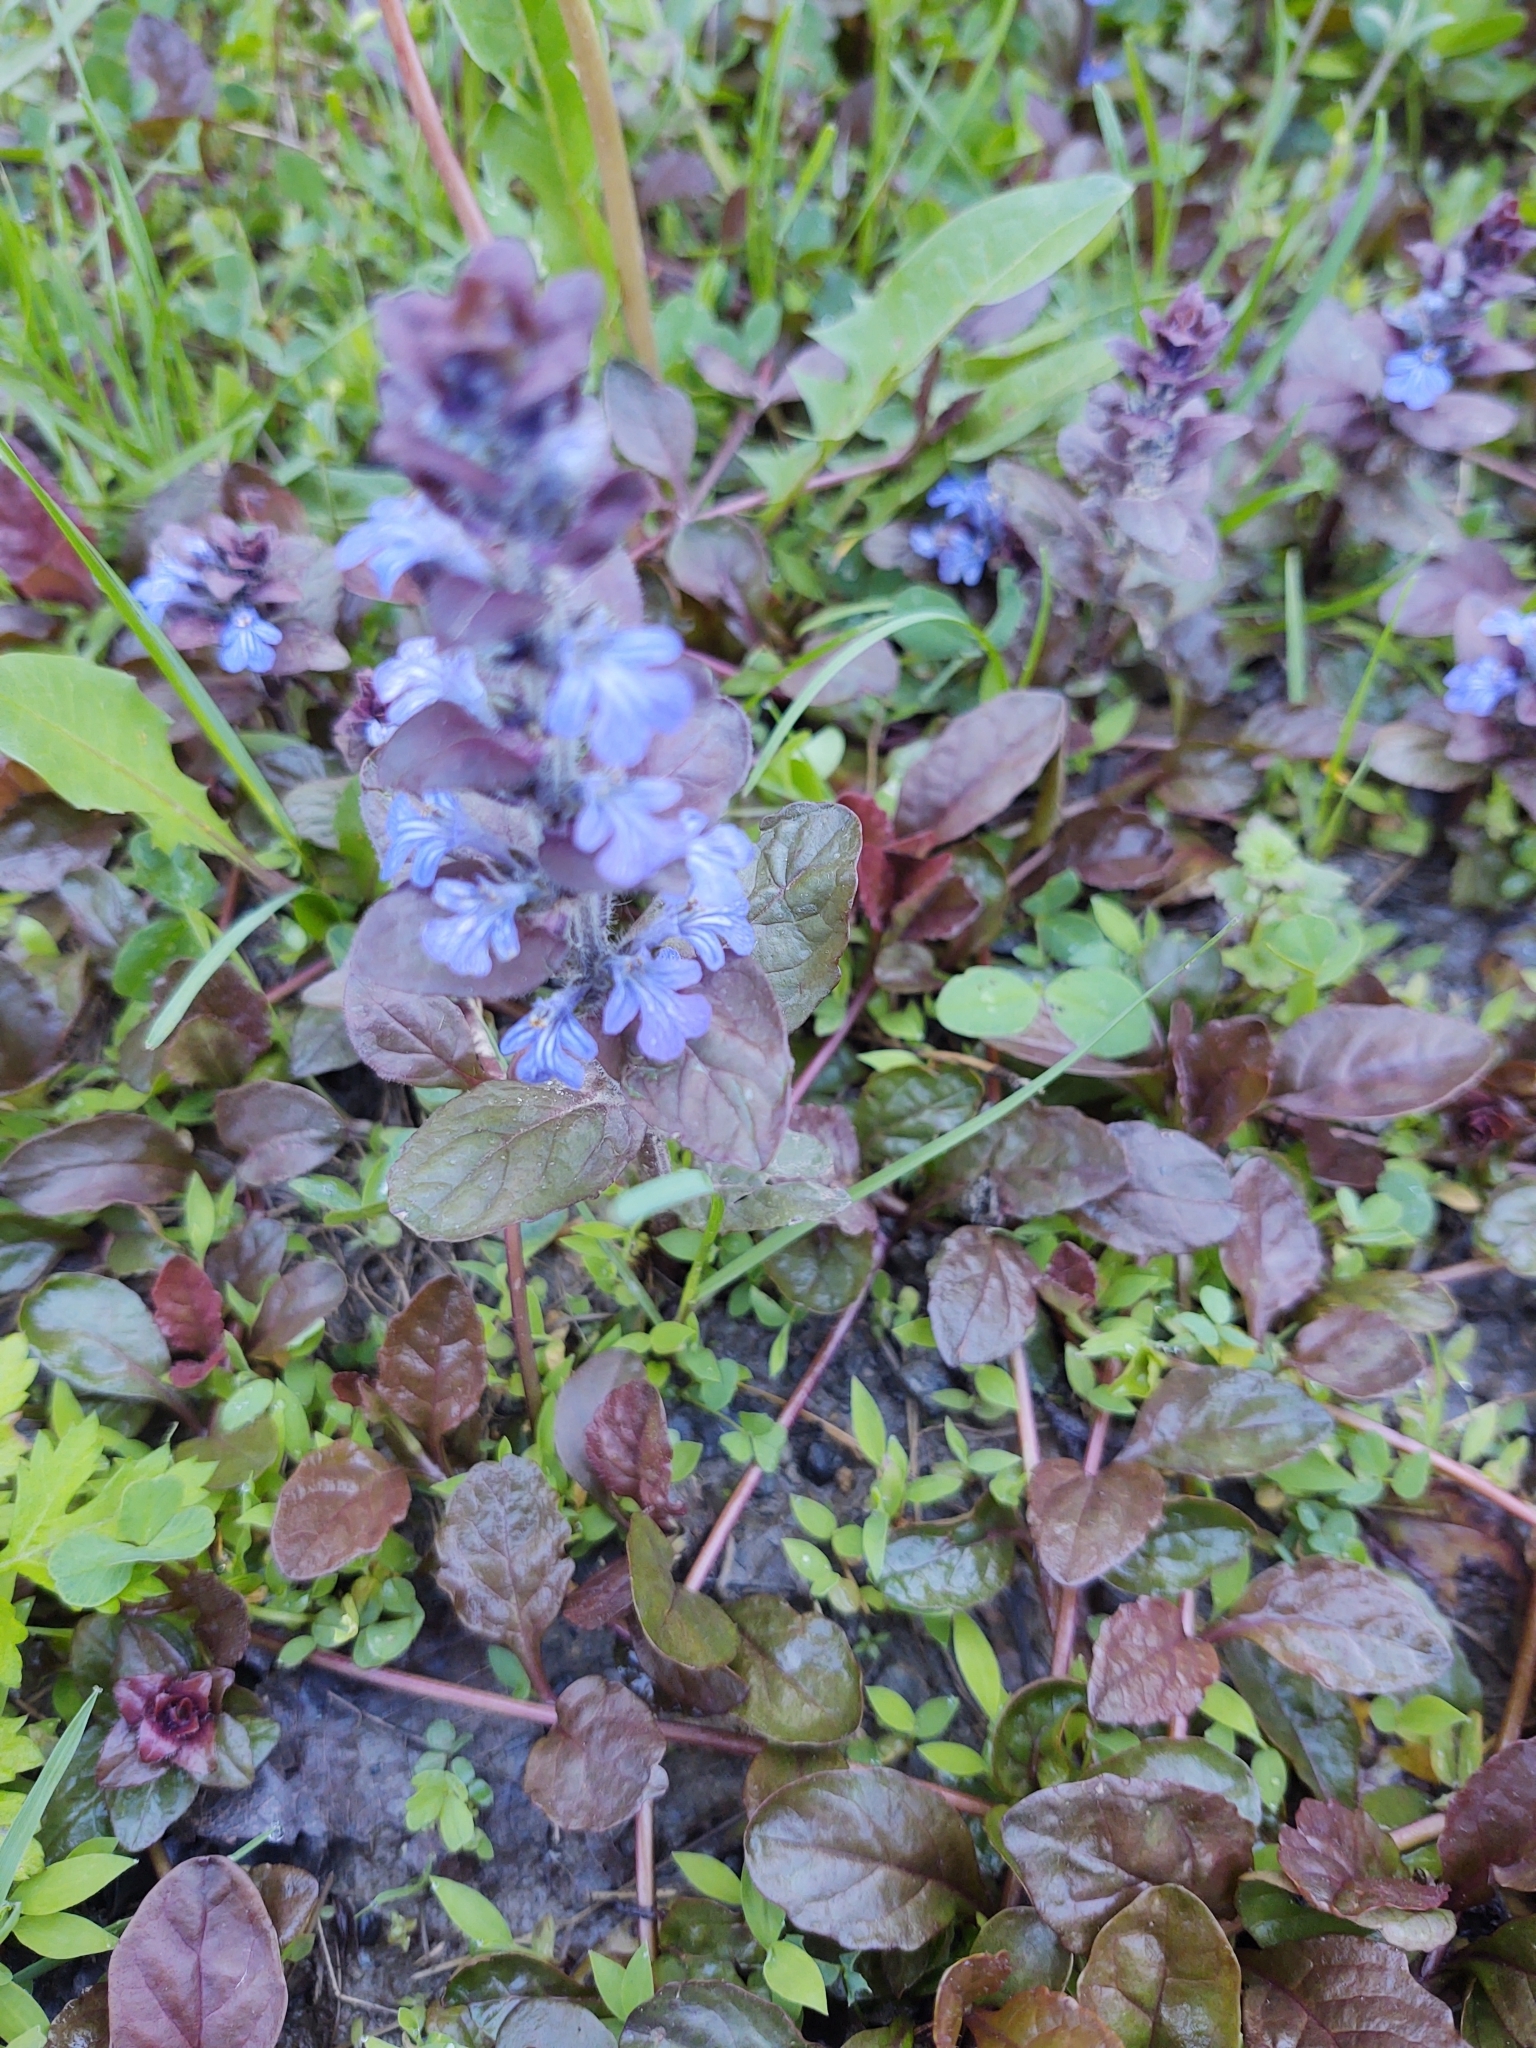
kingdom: Plantae
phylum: Tracheophyta
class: Magnoliopsida
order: Lamiales
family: Lamiaceae
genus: Ajuga
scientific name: Ajuga reptans
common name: Bugle
